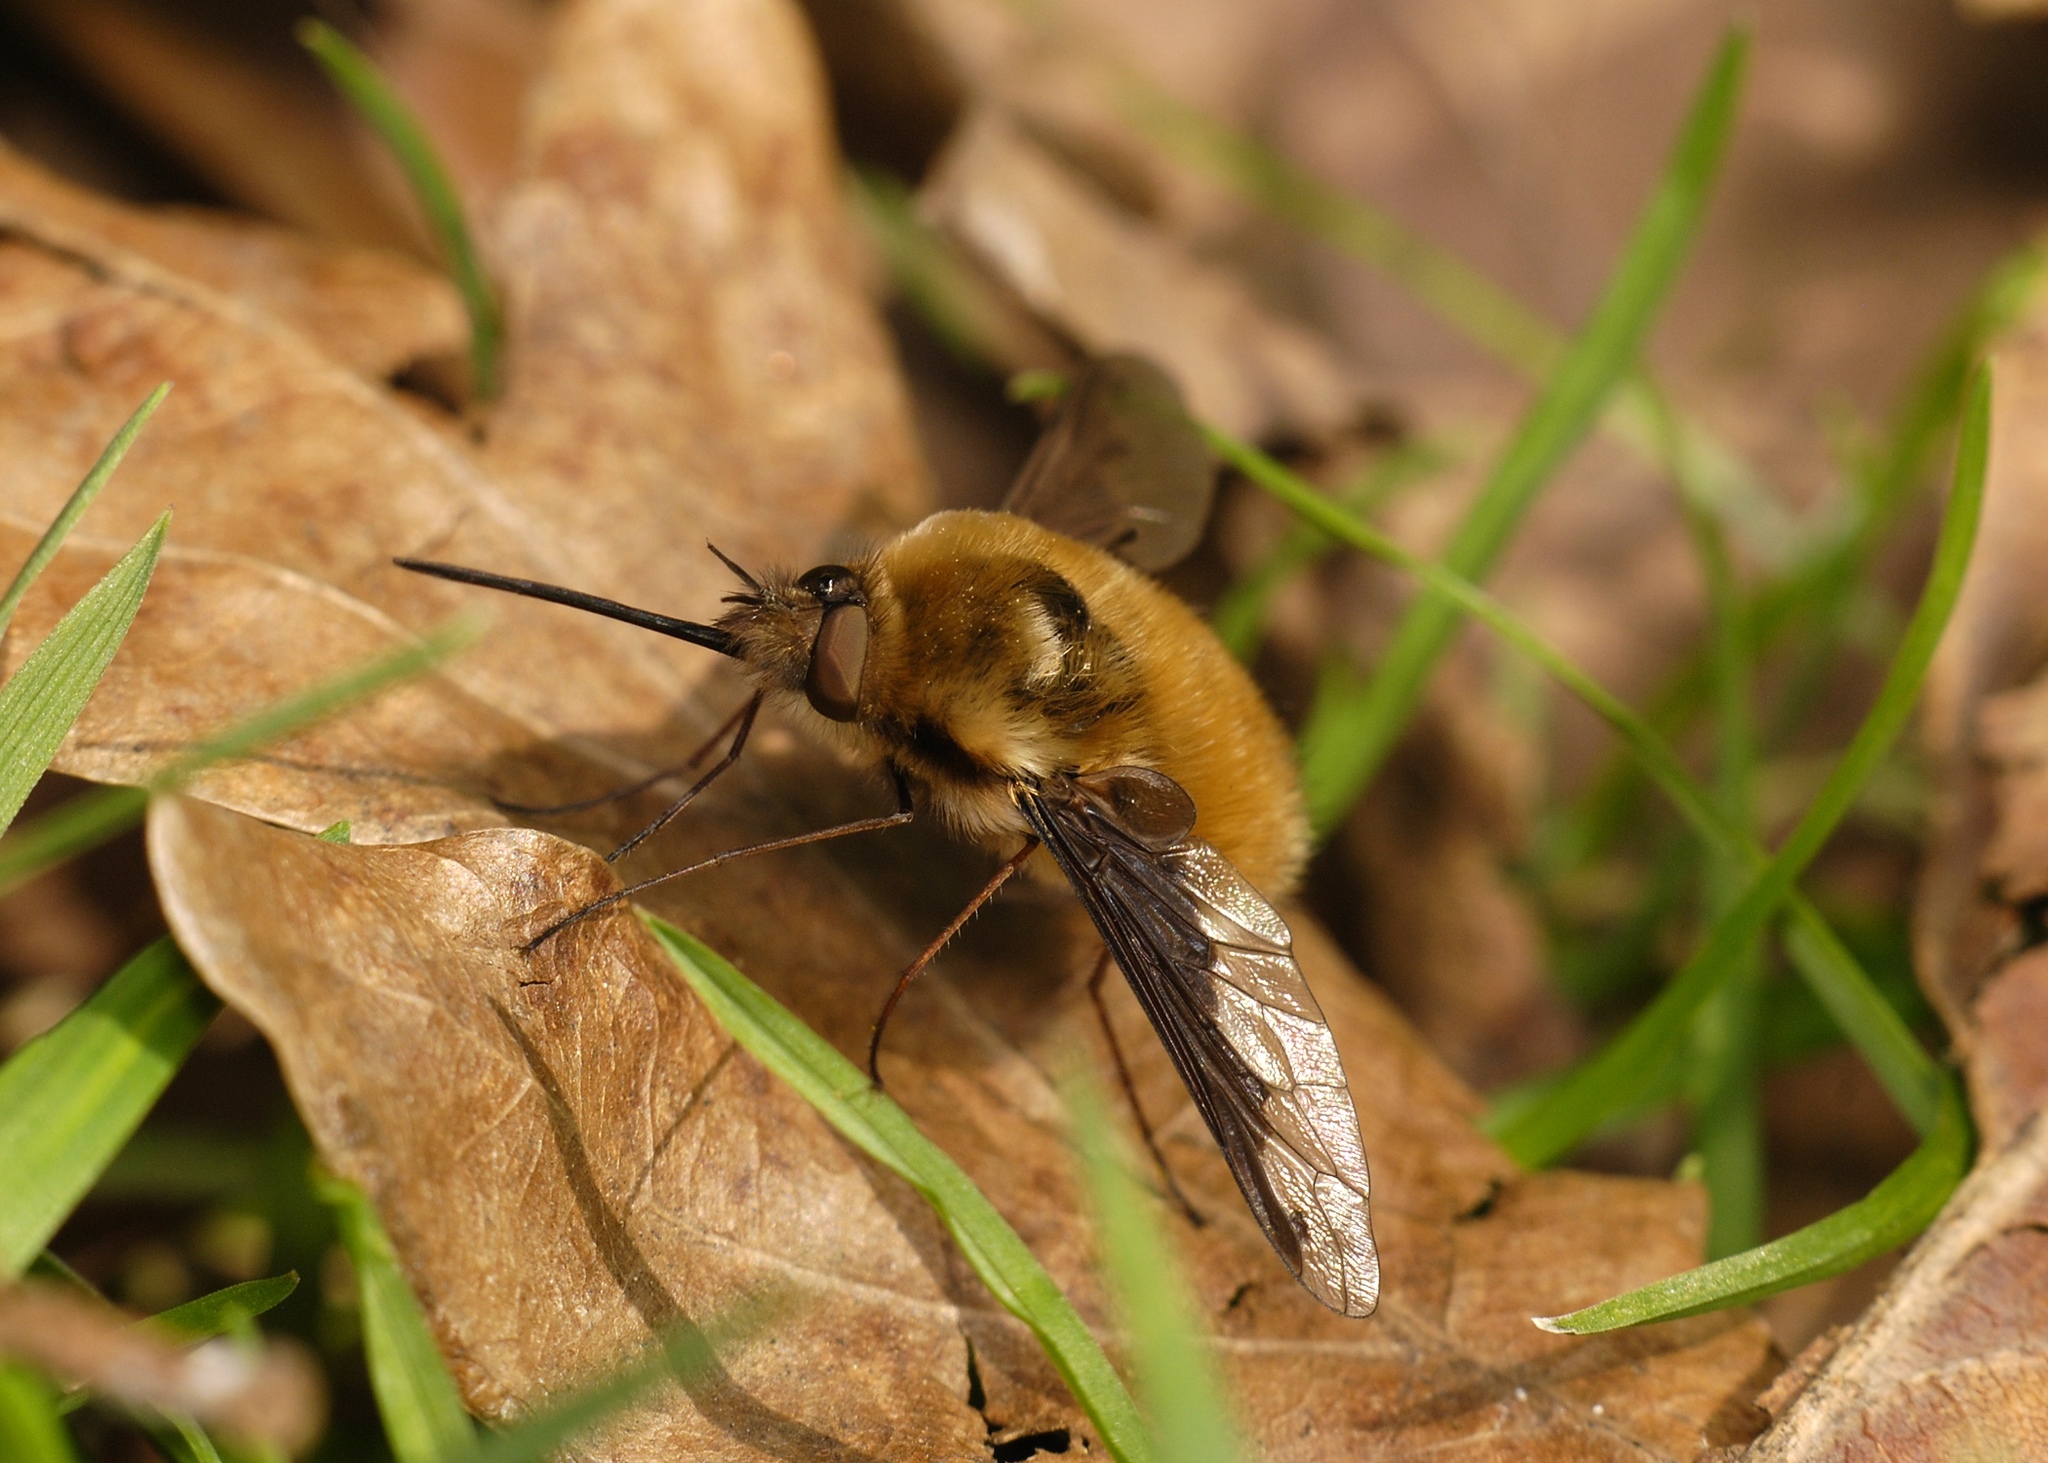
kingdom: Animalia
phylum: Arthropoda
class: Insecta
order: Diptera
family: Bombyliidae
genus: Bombylius
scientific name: Bombylius major
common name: Bee fly
